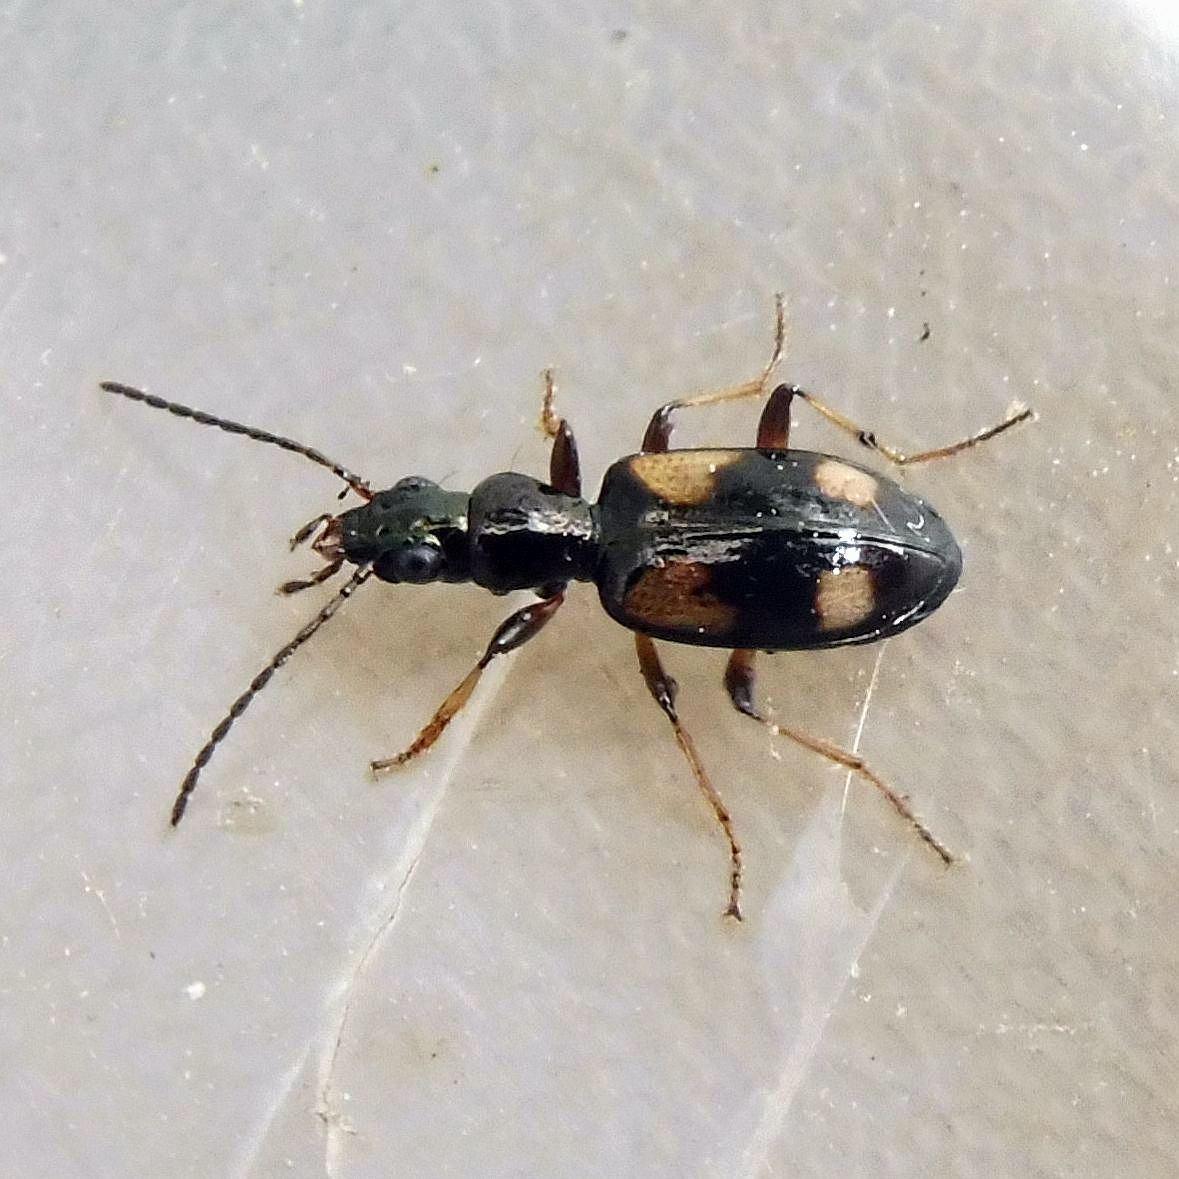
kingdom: Animalia
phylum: Arthropoda
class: Insecta
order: Coleoptera
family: Carabidae
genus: Bembidion
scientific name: Bembidion genei
